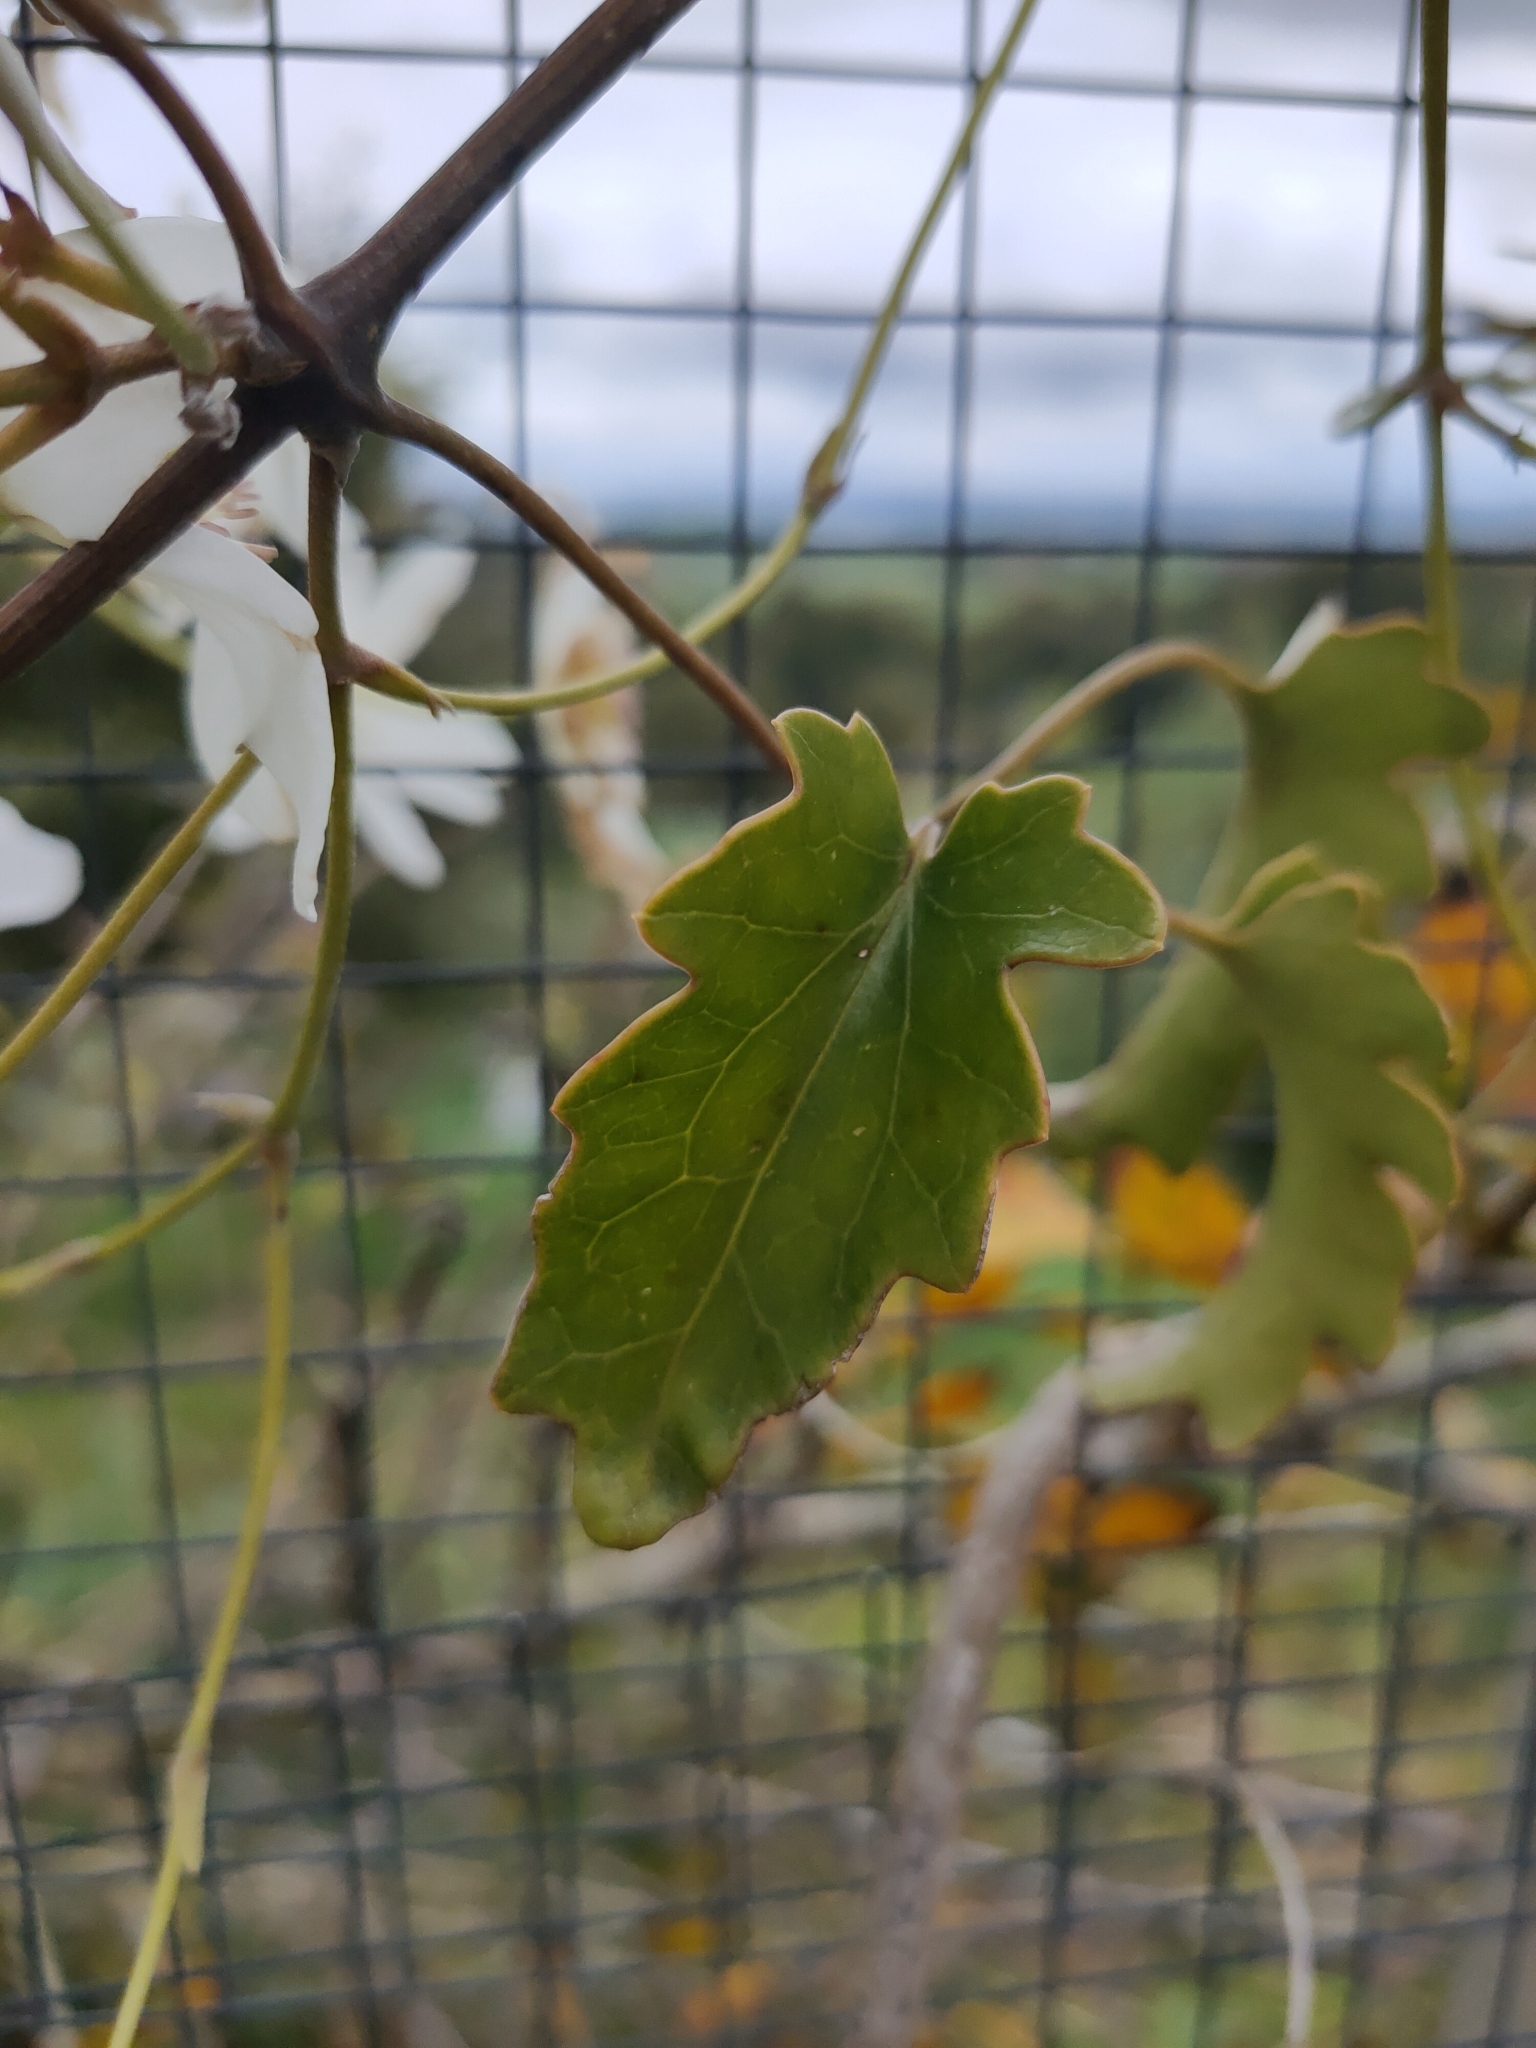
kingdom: Plantae
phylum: Tracheophyta
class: Magnoliopsida
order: Ranunculales
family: Ranunculaceae
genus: Clematis
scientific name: Clematis paniculata
